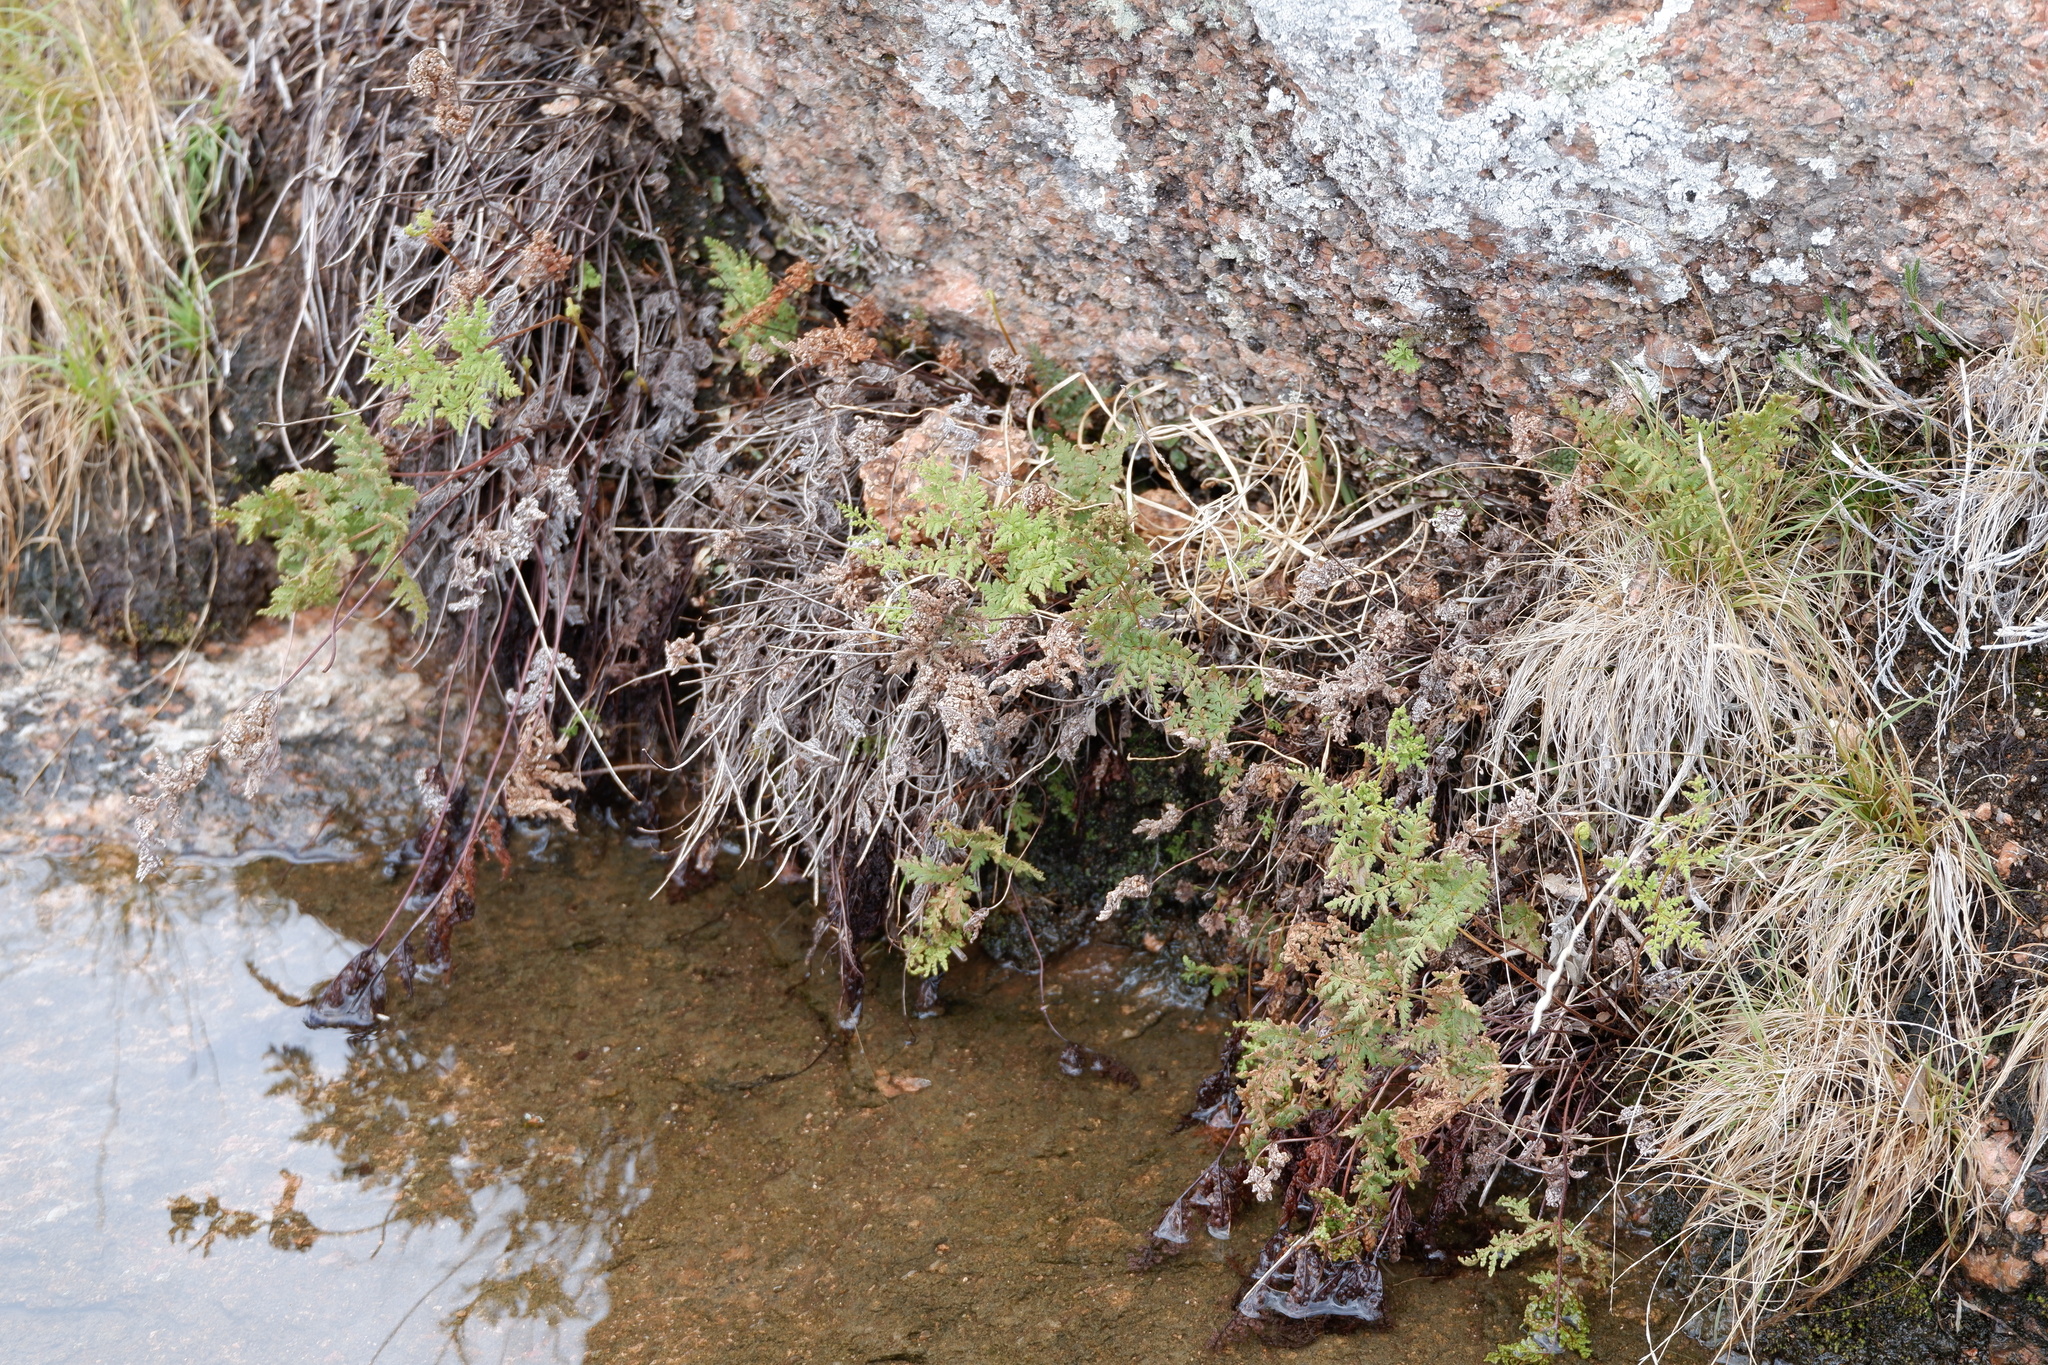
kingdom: Plantae
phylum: Tracheophyta
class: Polypodiopsida
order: Polypodiales
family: Pteridaceae
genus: Gaga
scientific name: Gaga kaulfussii
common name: Glandular lip fern
